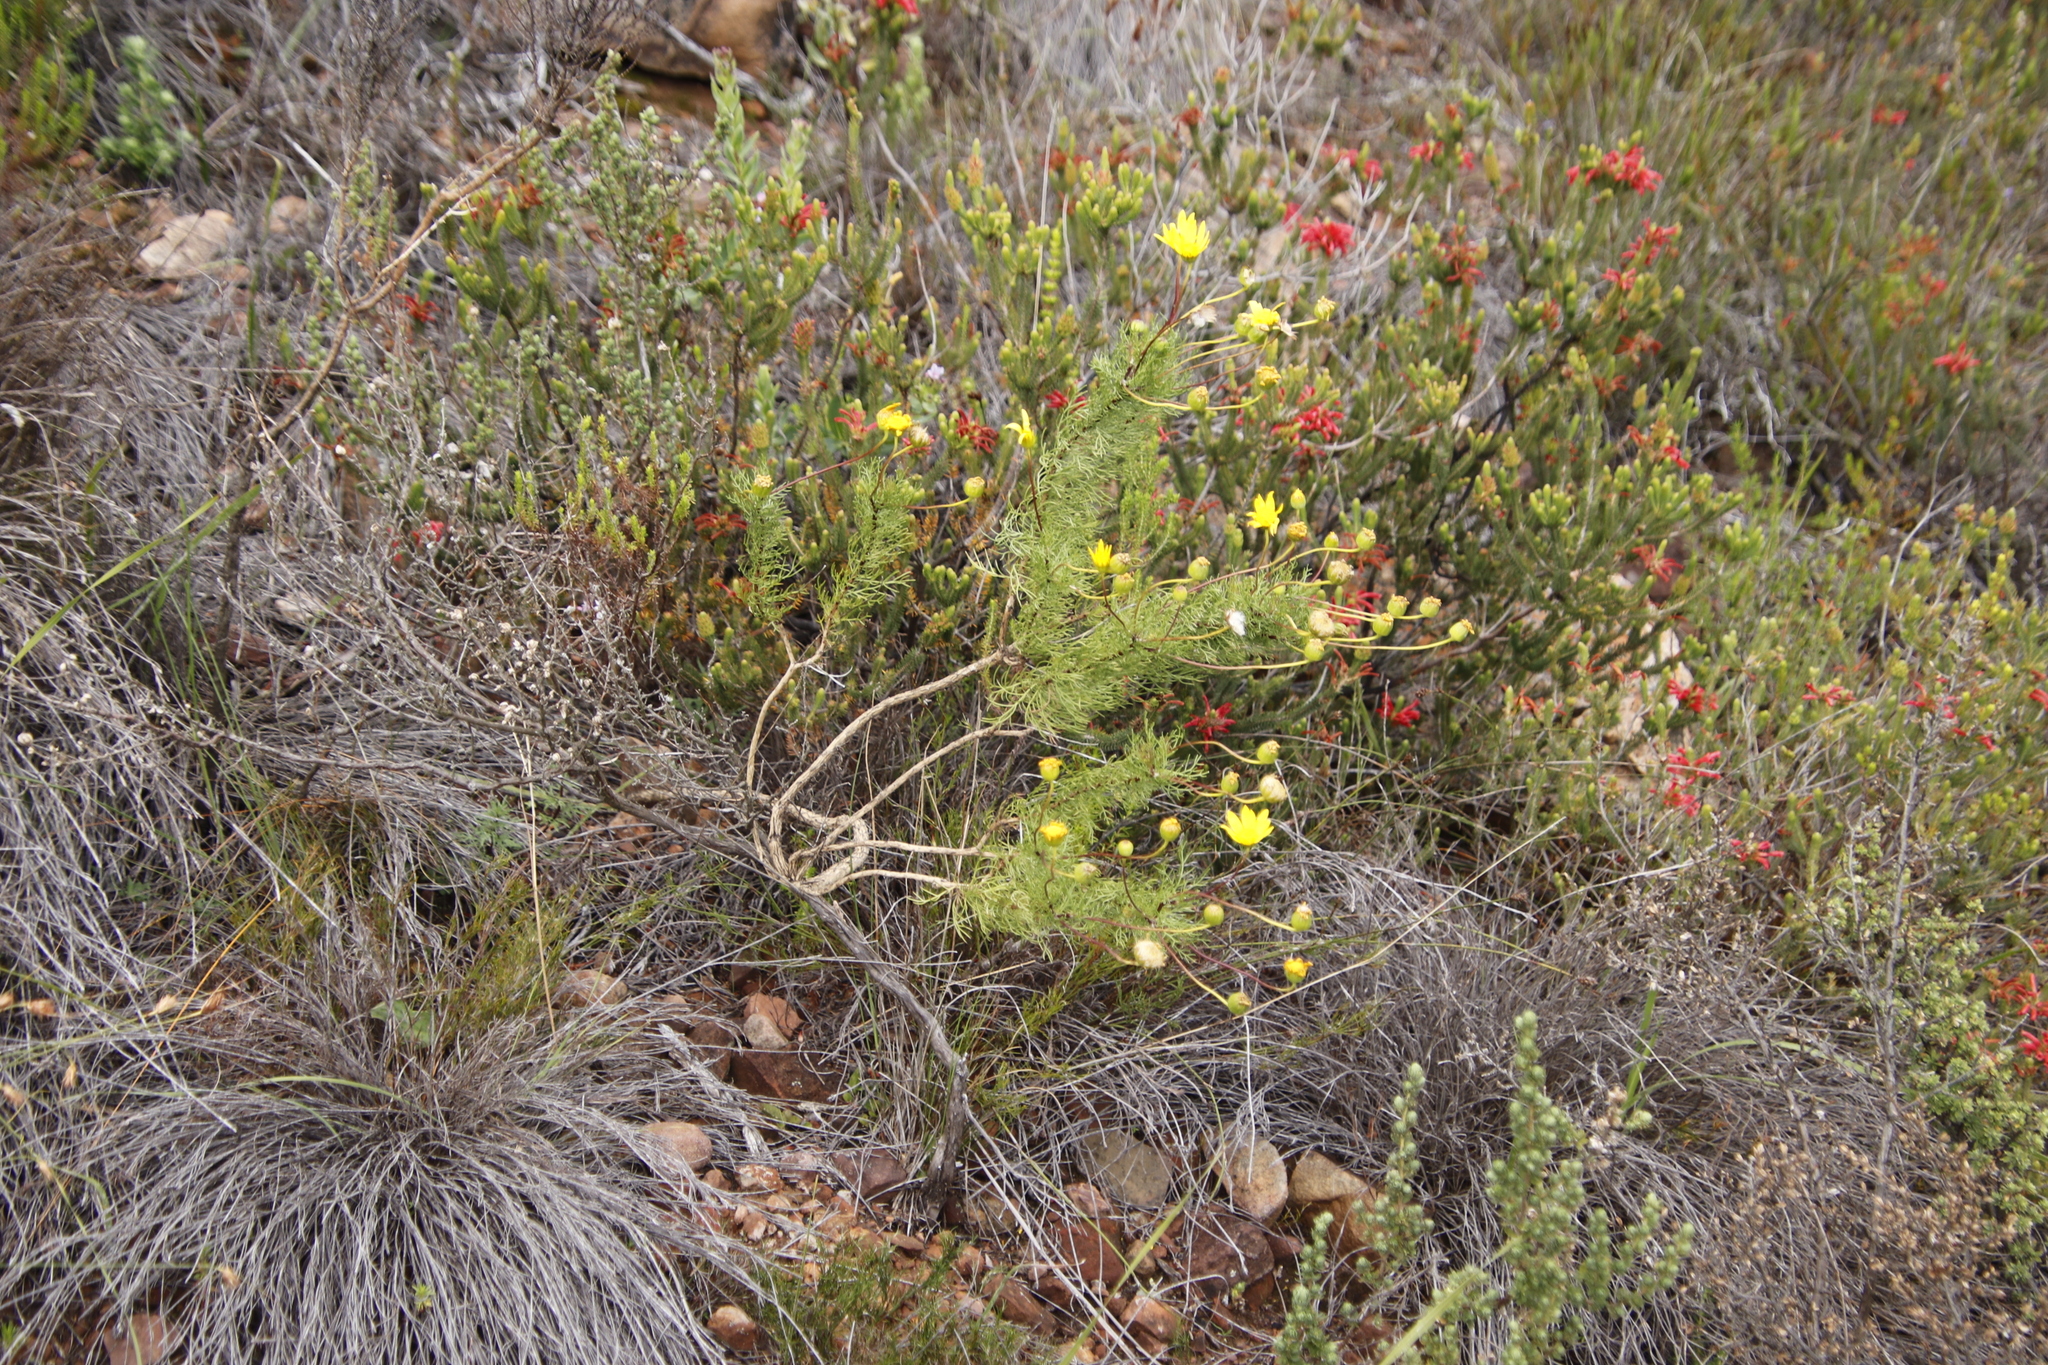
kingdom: Plantae
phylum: Tracheophyta
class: Magnoliopsida
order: Ericales
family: Ericaceae
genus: Erica
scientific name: Erica abietina
